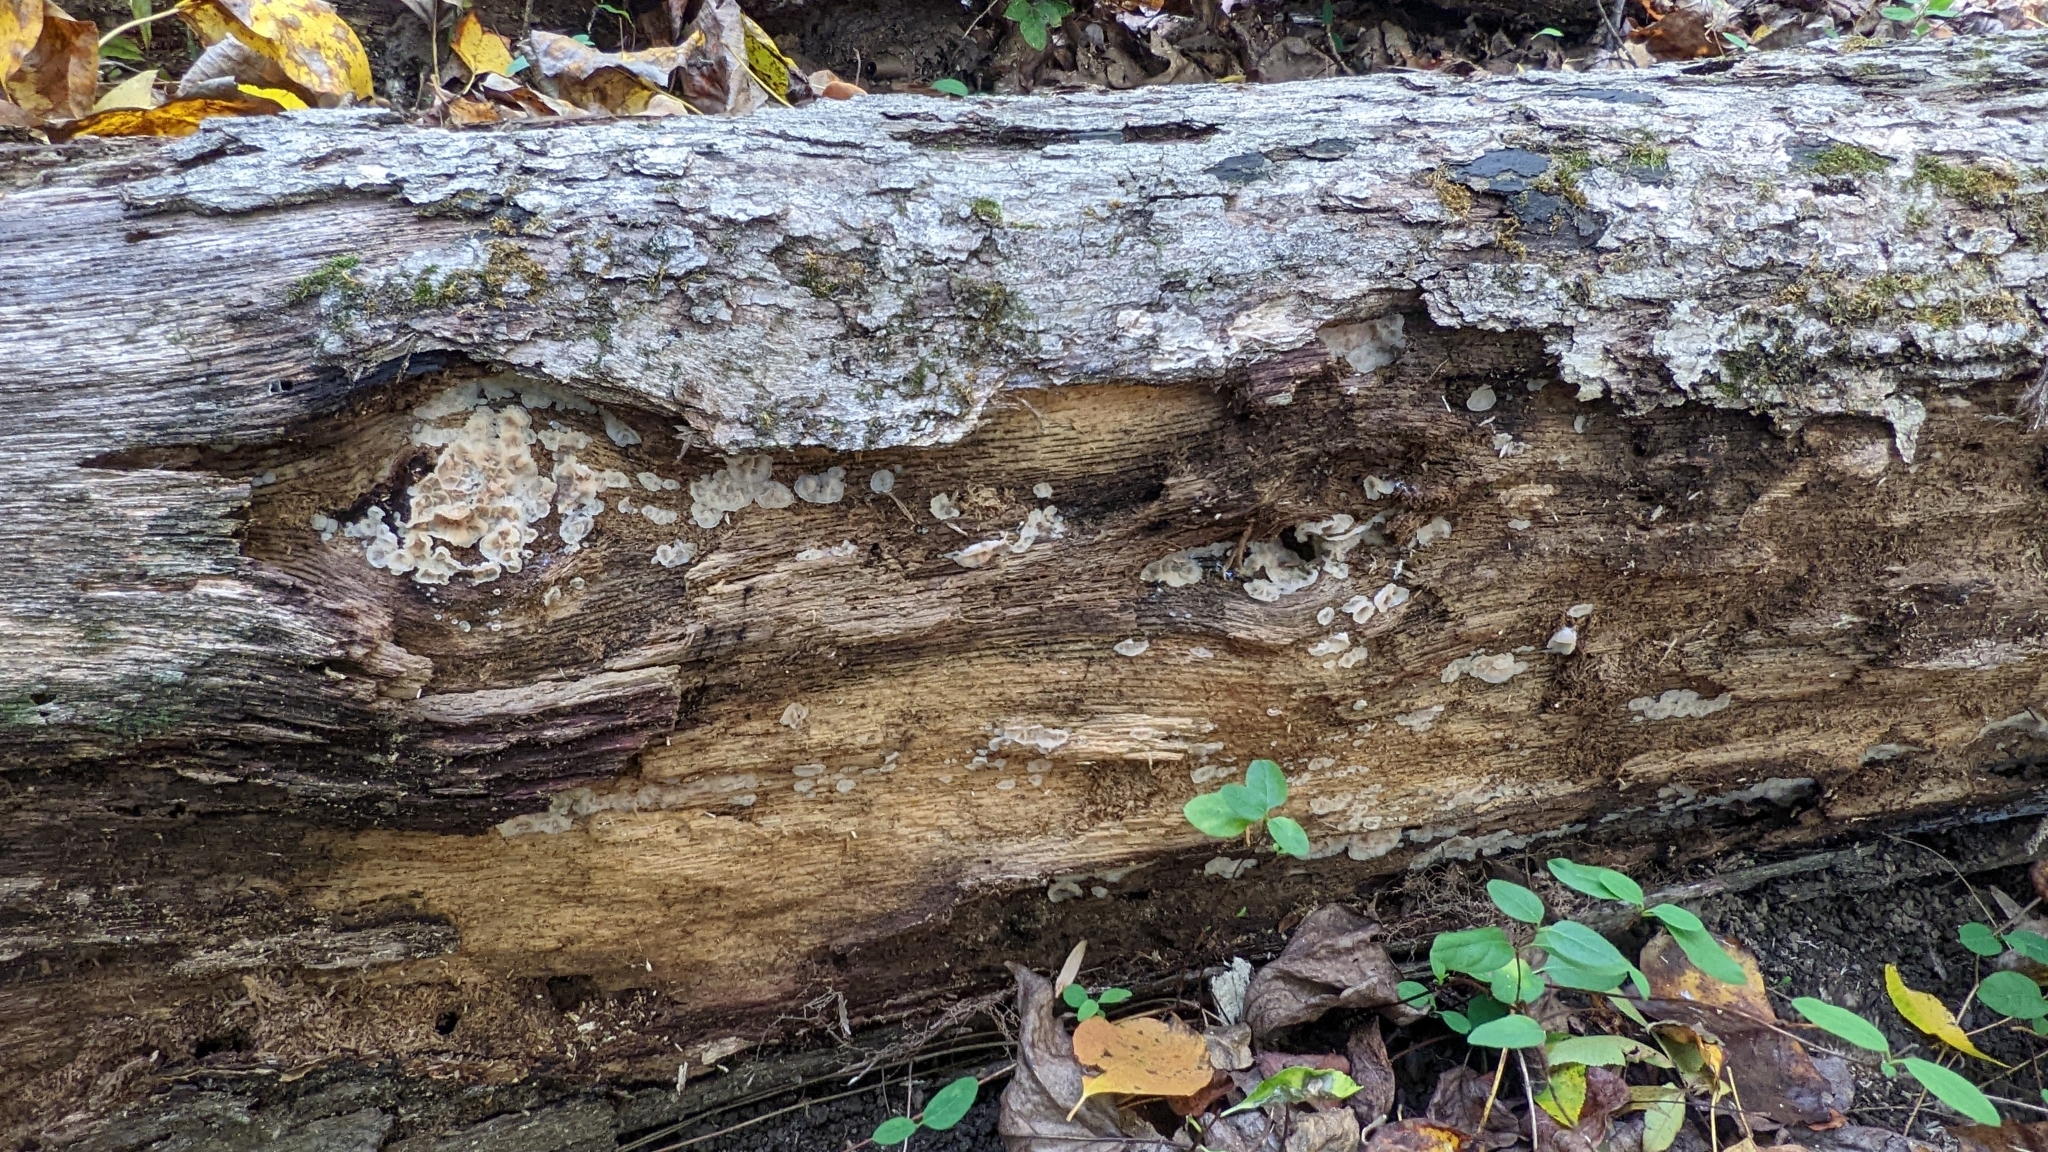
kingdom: Fungi
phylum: Basidiomycota
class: Agaricomycetes
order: Polyporales
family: Meruliaceae
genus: Phlebia
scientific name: Phlebia tremellosa
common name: Jelly rot
